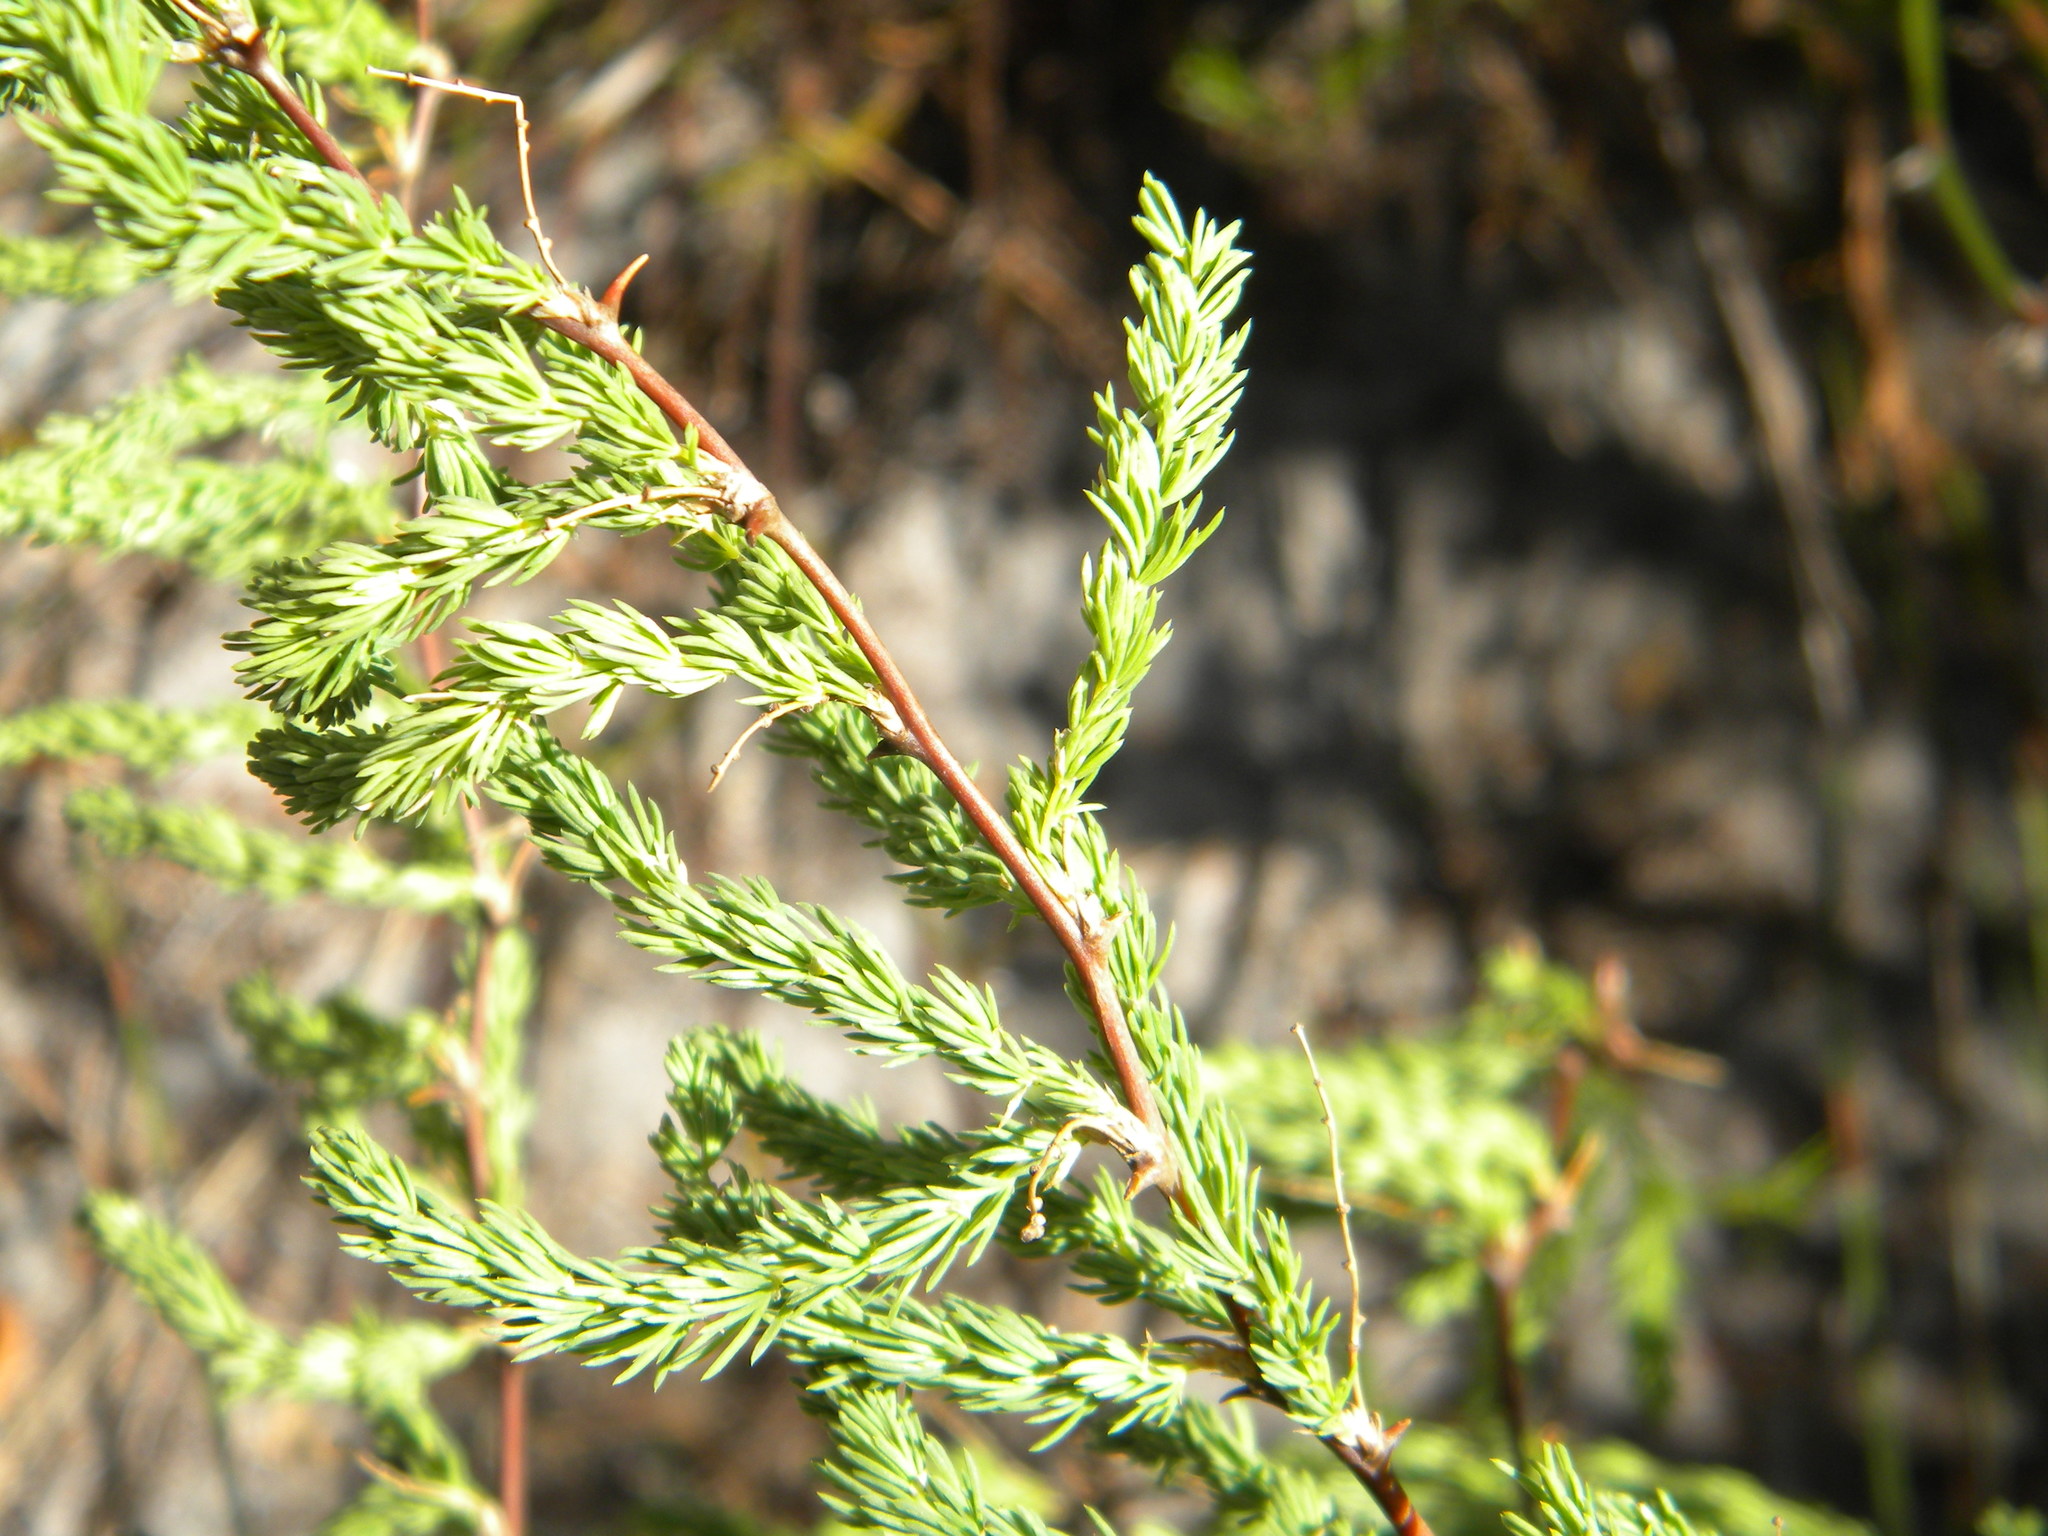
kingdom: Plantae
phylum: Tracheophyta
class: Liliopsida
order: Asparagales
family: Asparagaceae
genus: Asparagus
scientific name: Asparagus rubicundus
